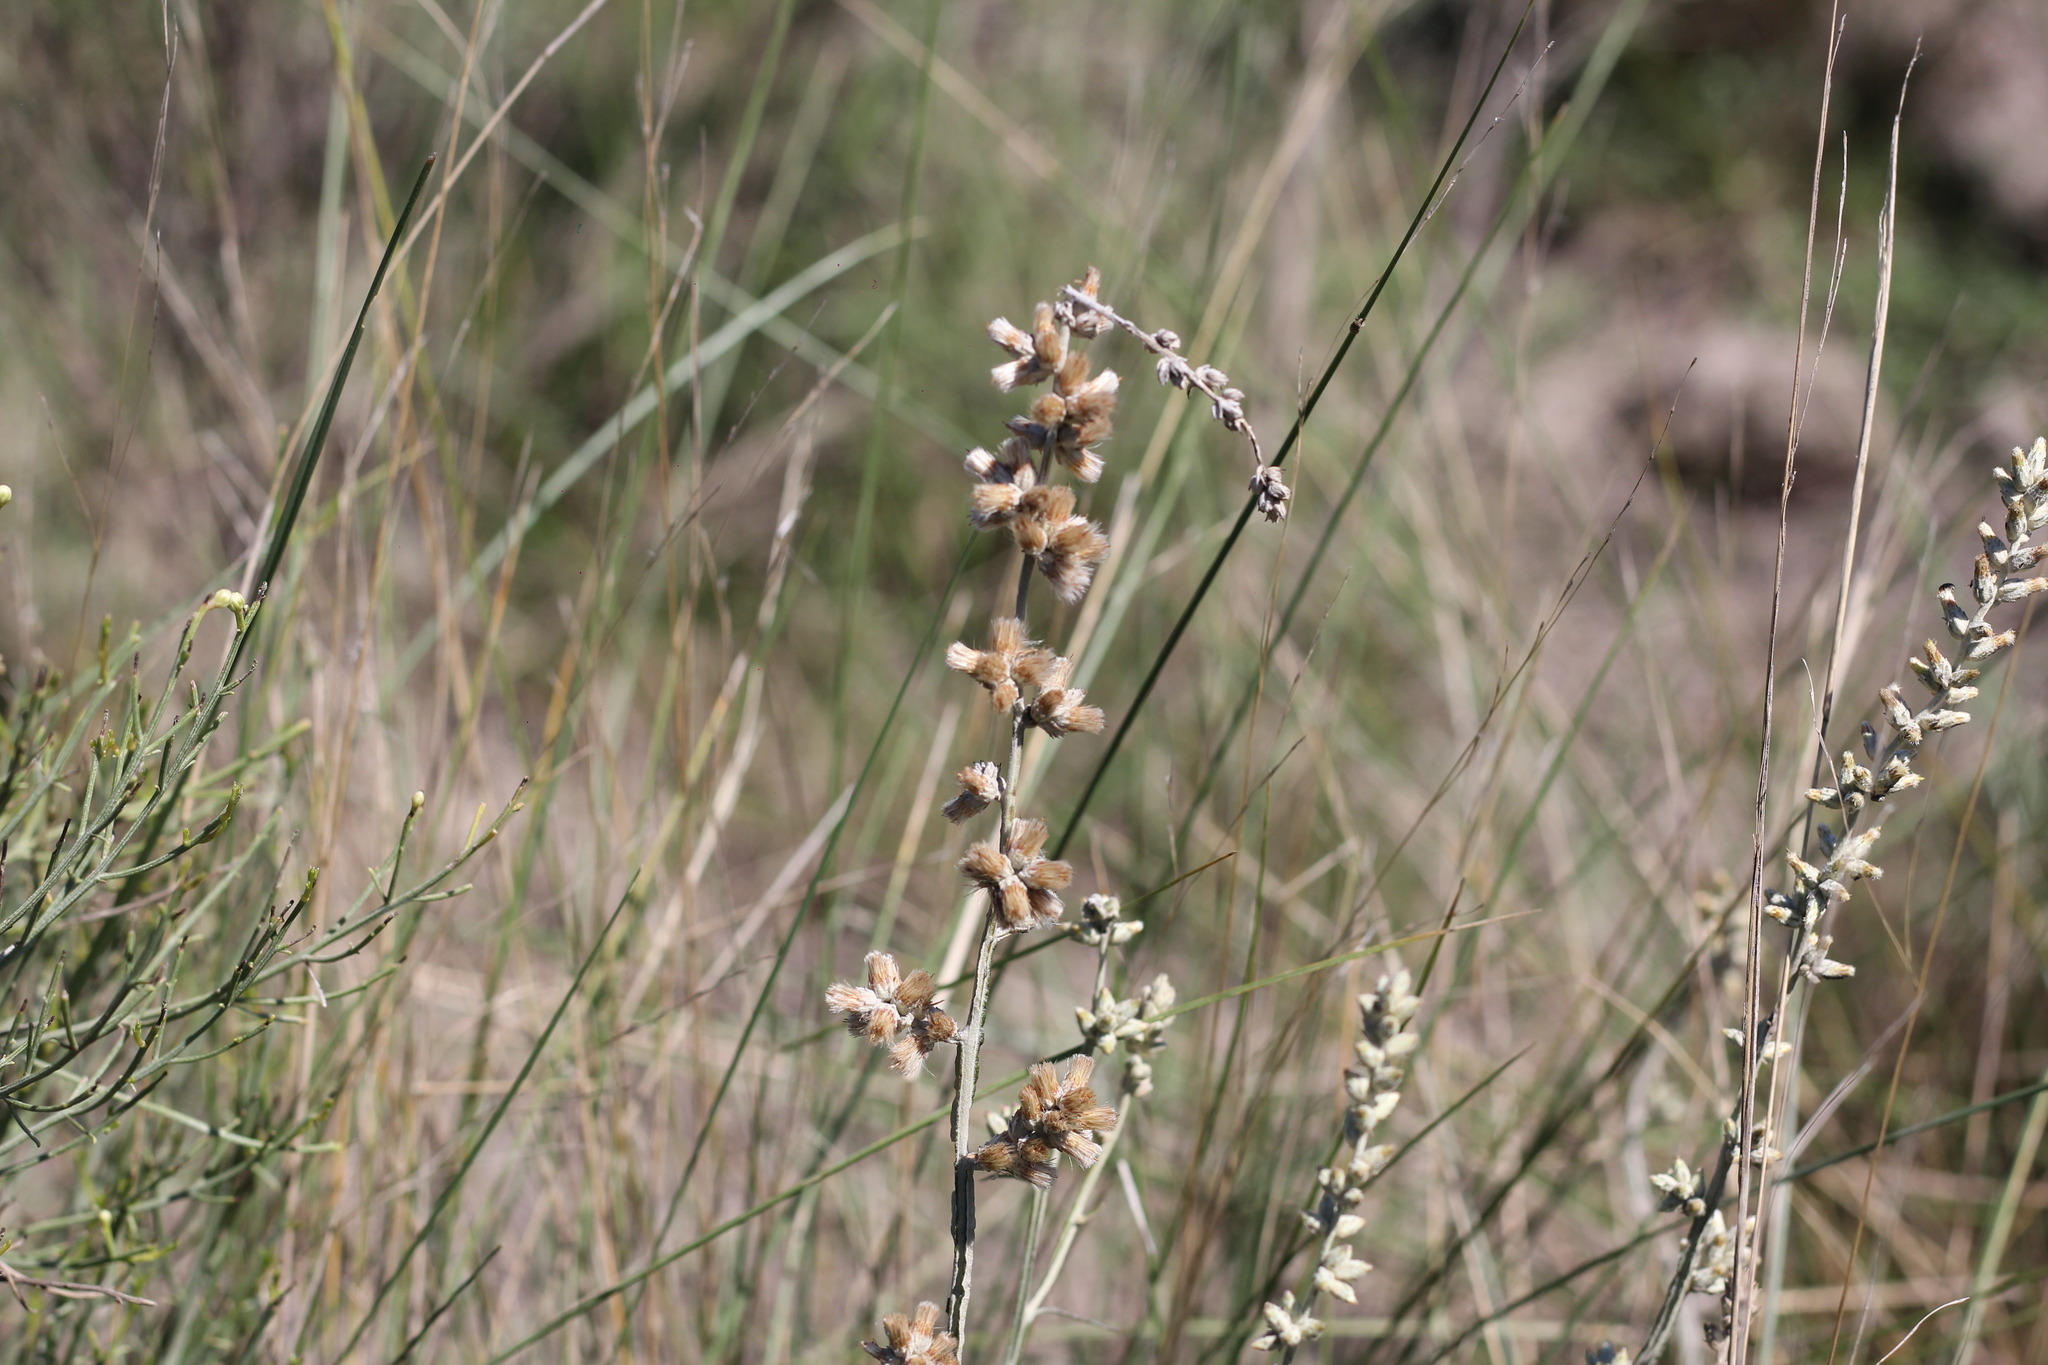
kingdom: Plantae
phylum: Tracheophyta
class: Magnoliopsida
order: Asterales
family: Asteraceae
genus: Pterocaulon
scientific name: Pterocaulon virgatum
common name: Wand blackroot
